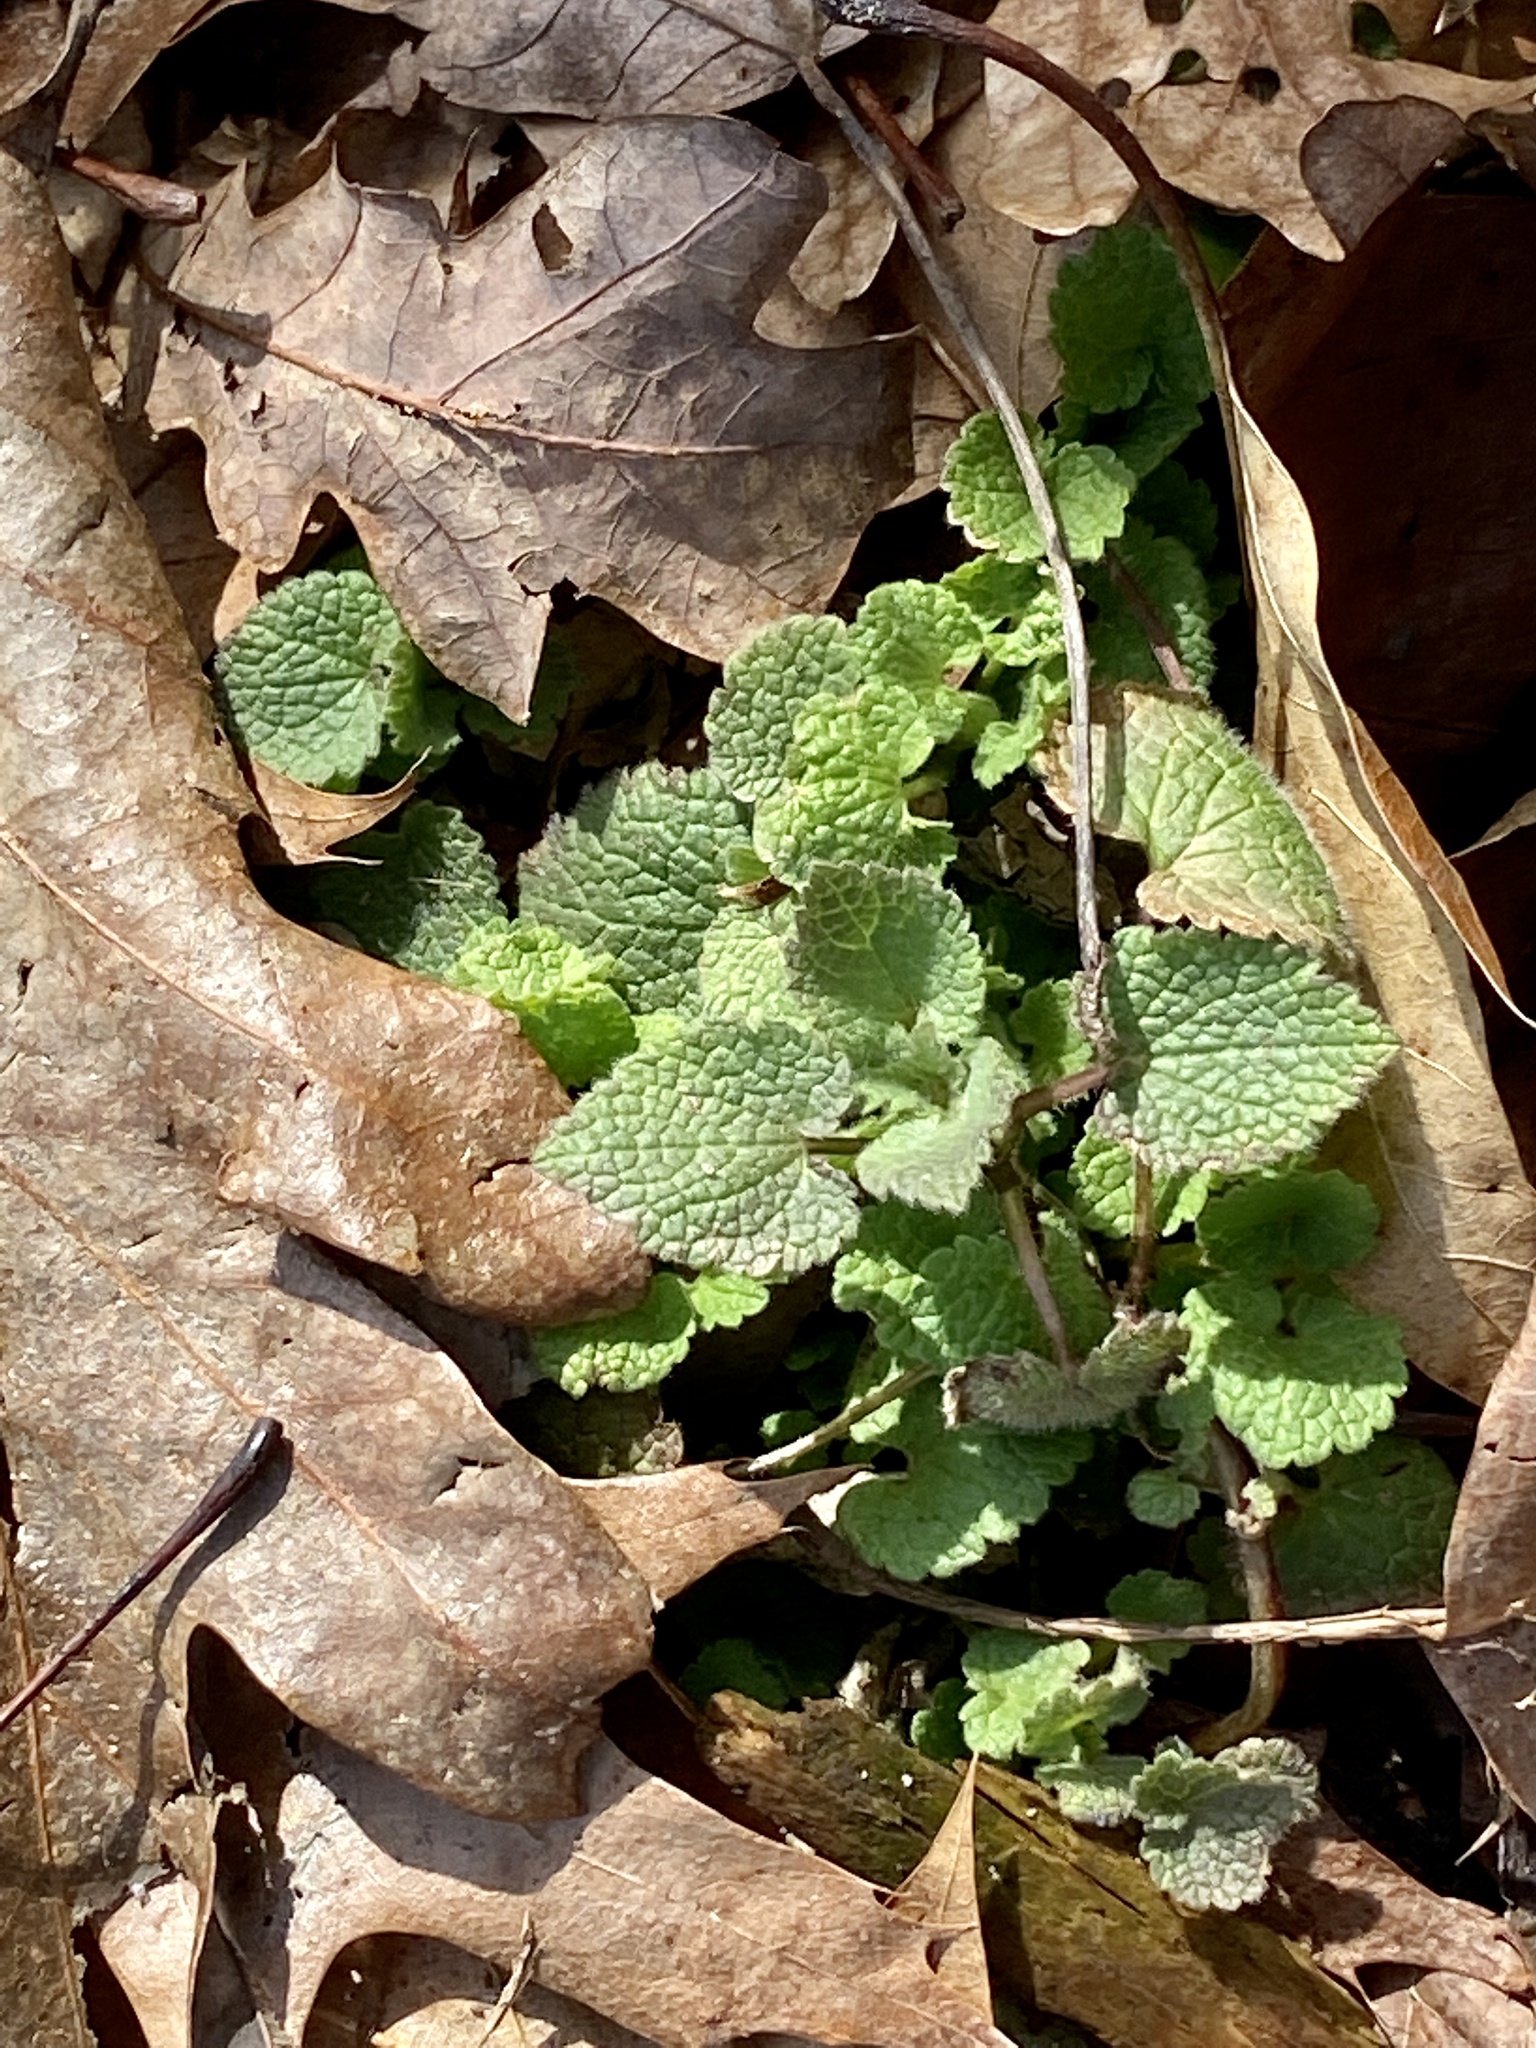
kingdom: Plantae
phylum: Tracheophyta
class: Magnoliopsida
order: Lamiales
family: Lamiaceae
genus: Lamium
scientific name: Lamium purpureum
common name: Red dead-nettle
